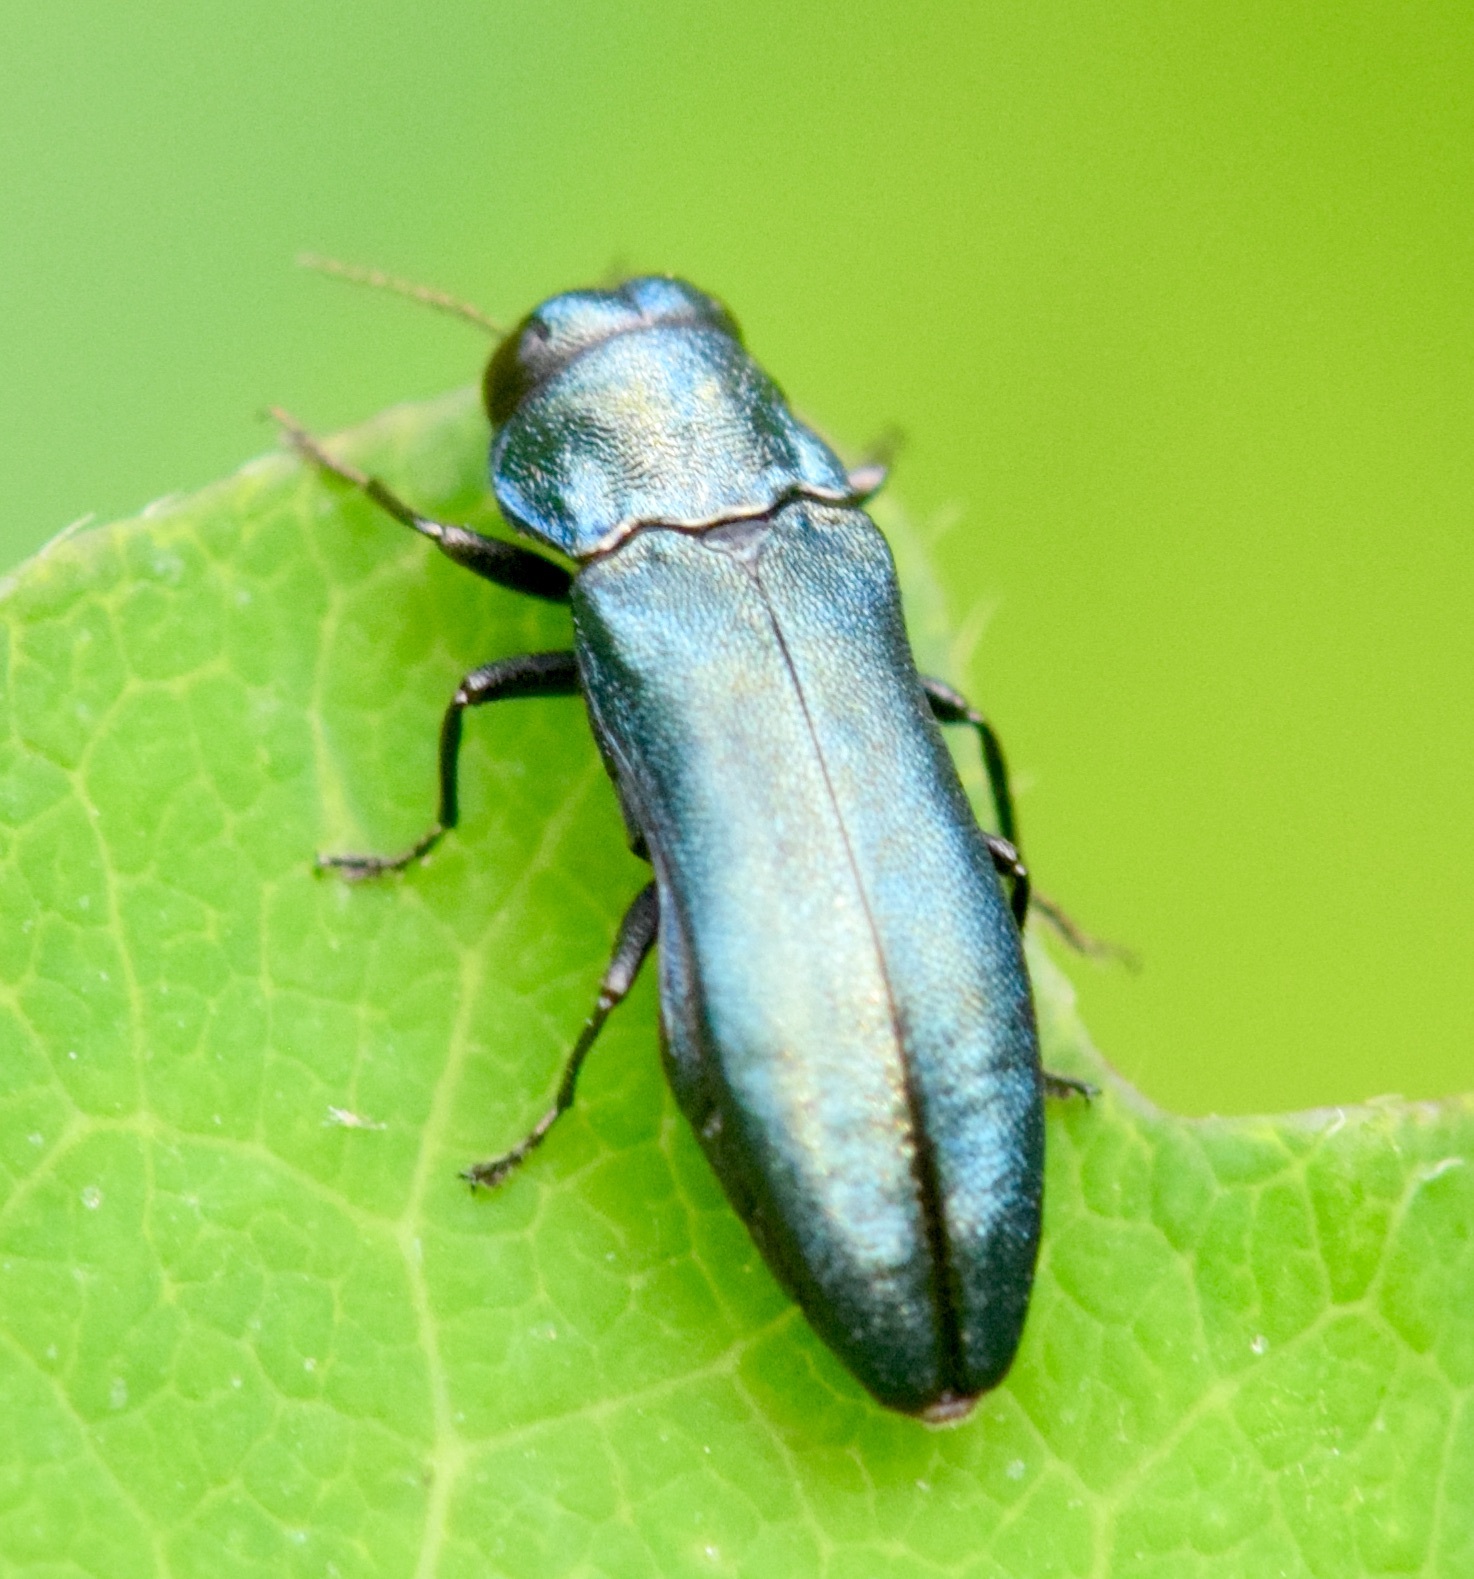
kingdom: Animalia
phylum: Arthropoda
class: Insecta
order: Coleoptera
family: Buprestidae
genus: Agrilus
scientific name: Agrilus cyanescens
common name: Bluish borer beetle
